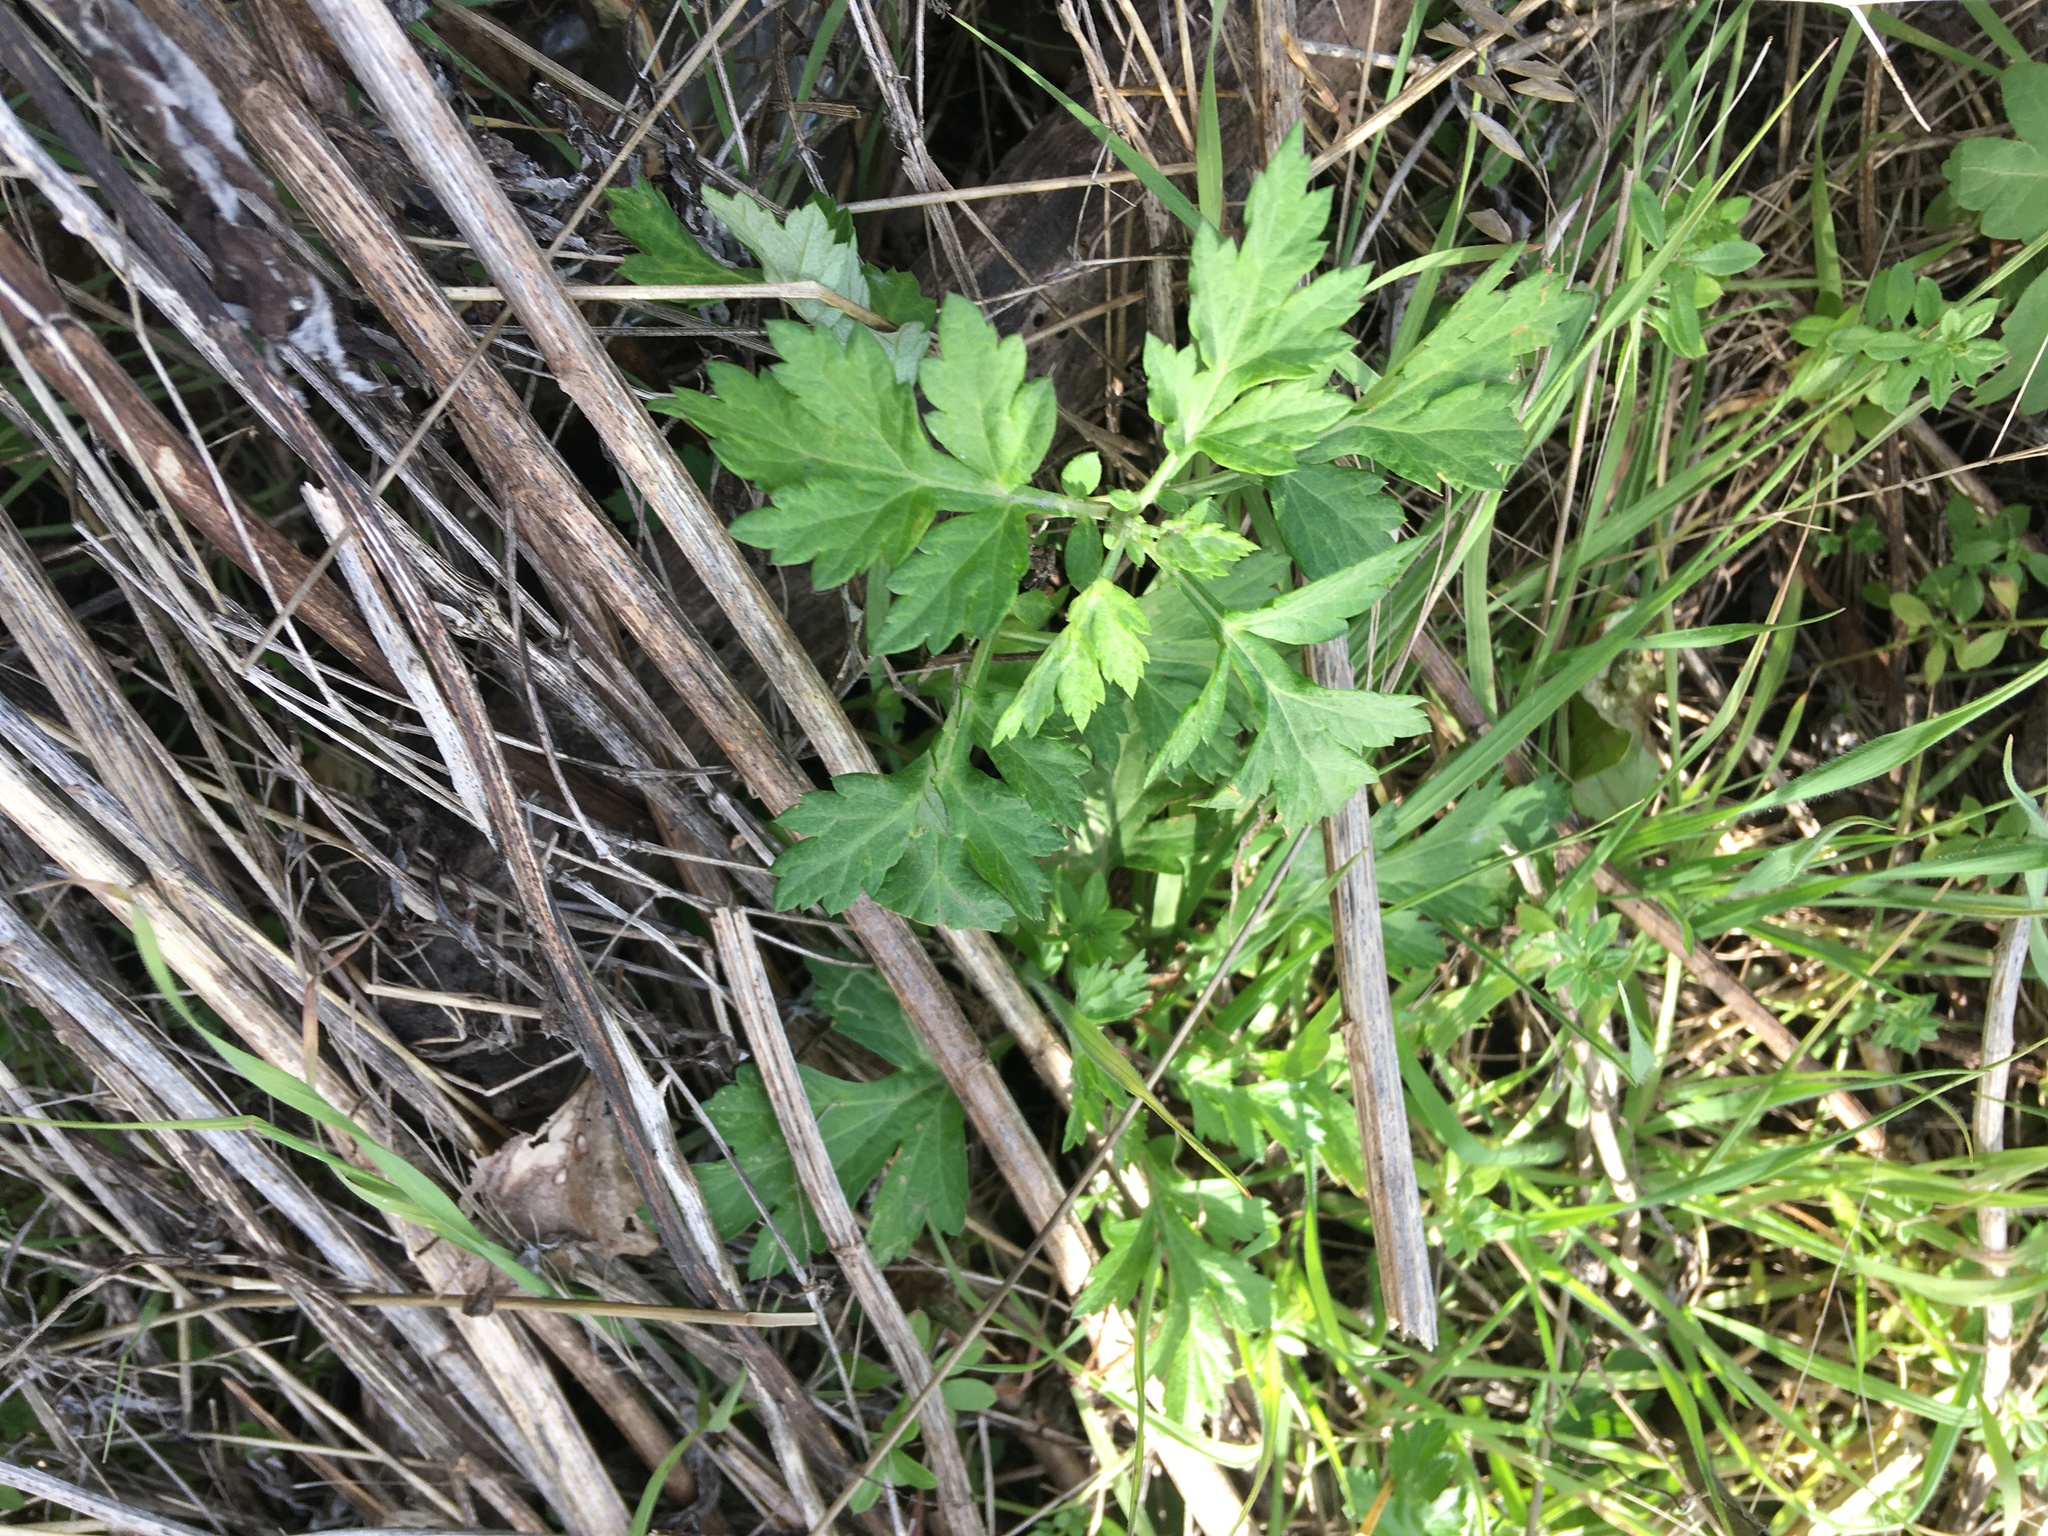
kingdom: Plantae
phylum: Tracheophyta
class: Magnoliopsida
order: Asterales
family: Asteraceae
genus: Artemisia
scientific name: Artemisia vulgaris
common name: Mugwort
